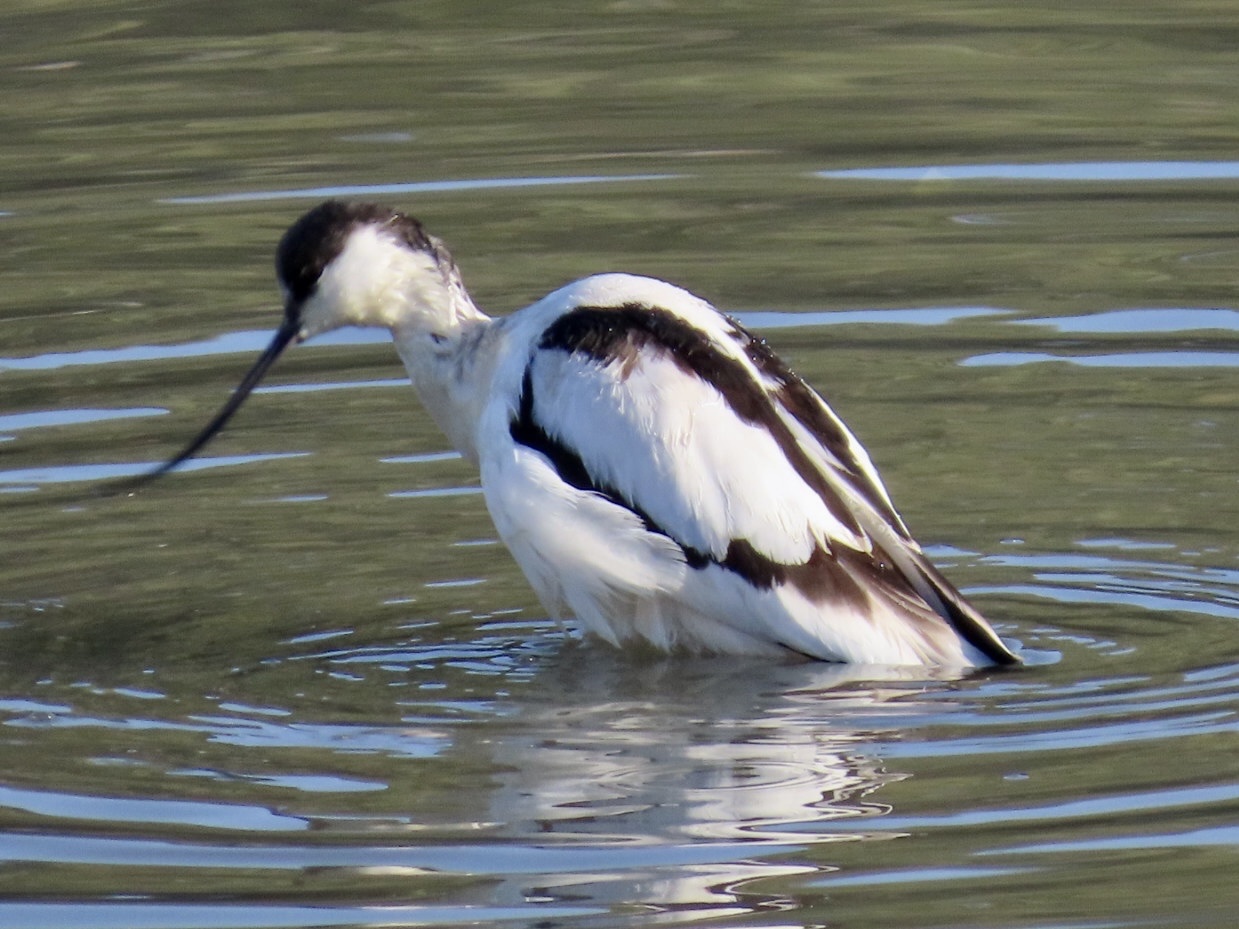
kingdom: Animalia
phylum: Chordata
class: Aves
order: Charadriiformes
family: Recurvirostridae
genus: Recurvirostra
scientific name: Recurvirostra avosetta
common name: Pied avocet
